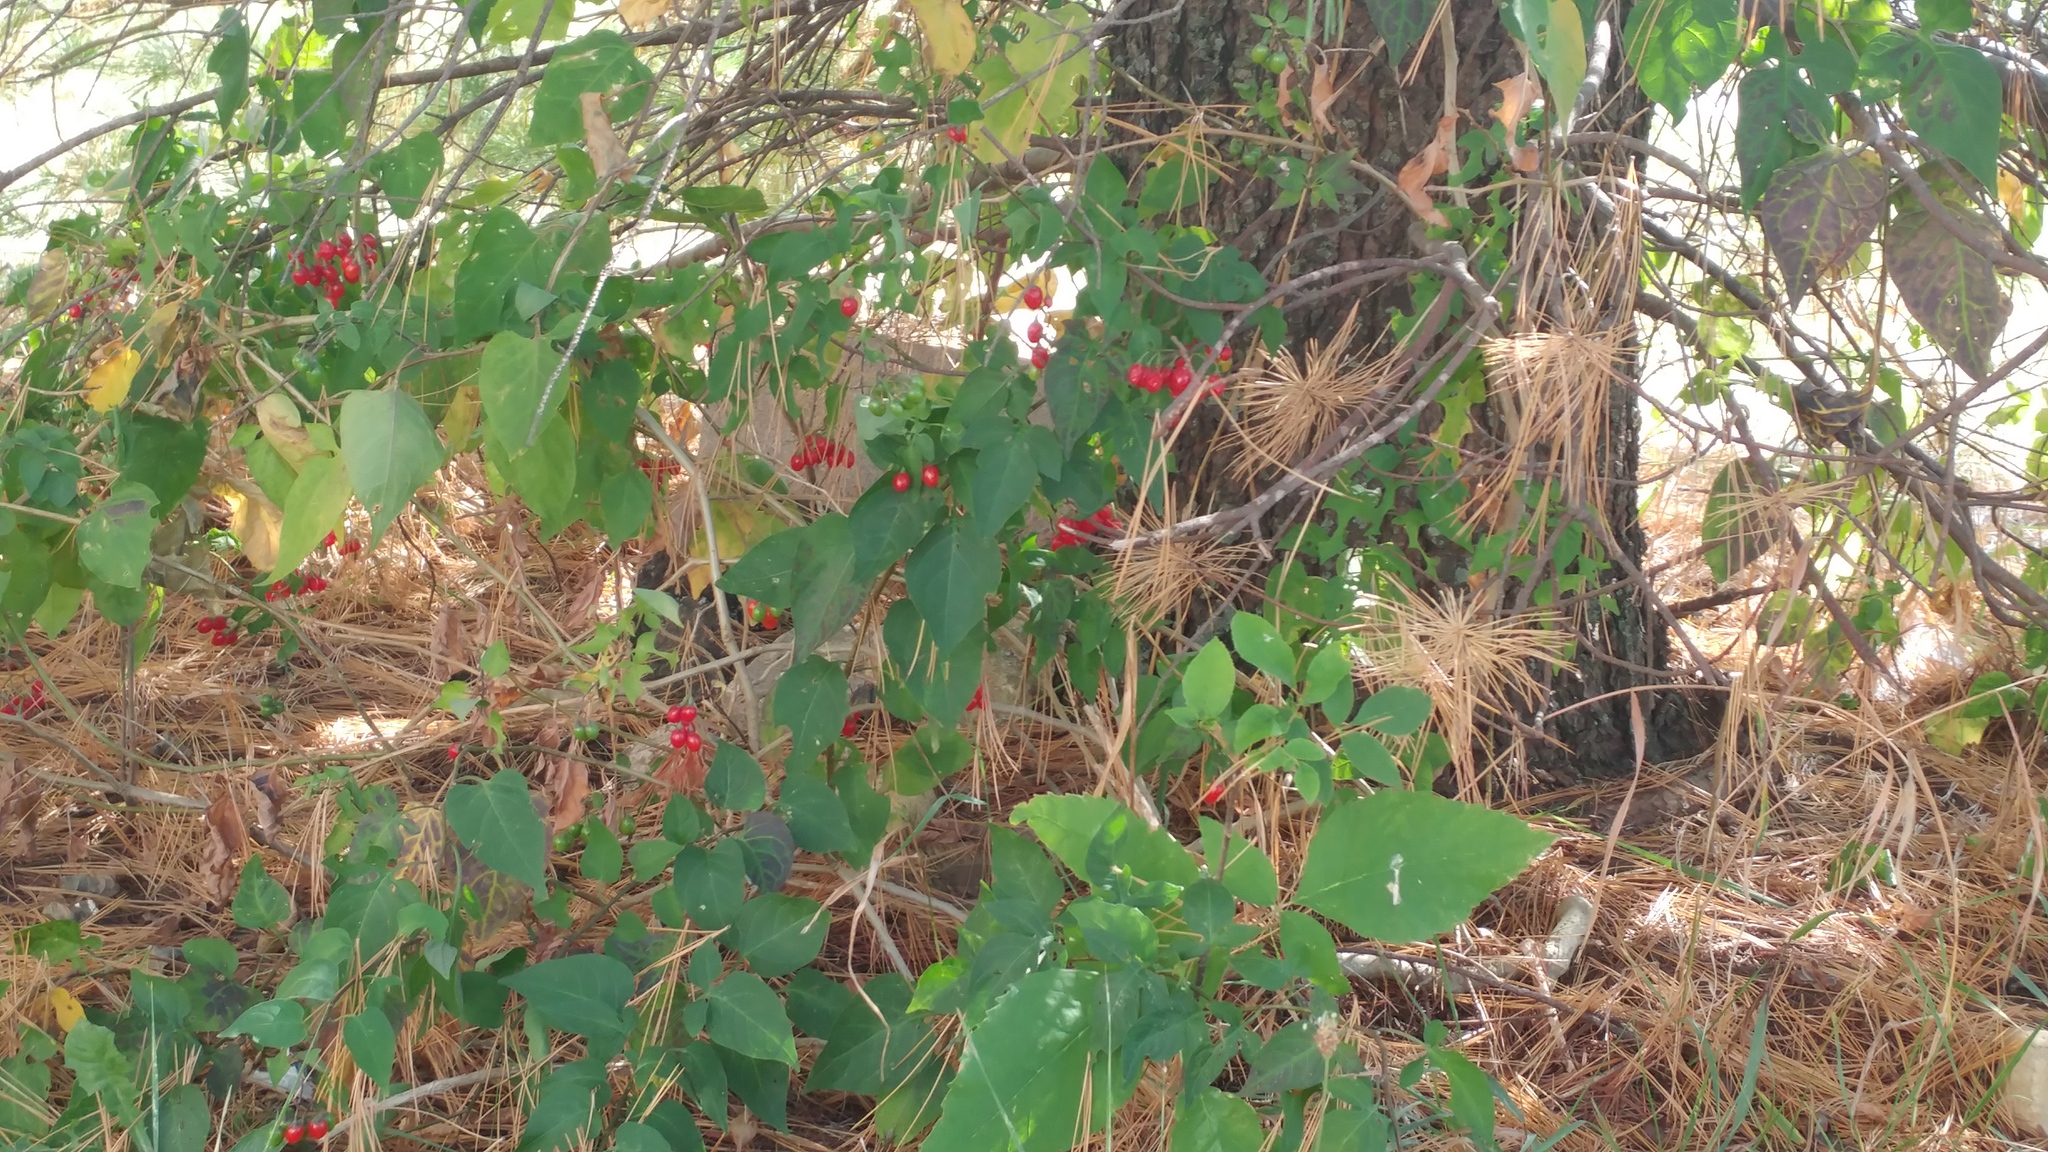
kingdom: Plantae
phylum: Tracheophyta
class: Magnoliopsida
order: Solanales
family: Solanaceae
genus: Solanum
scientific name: Solanum dulcamara
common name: Climbing nightshade
